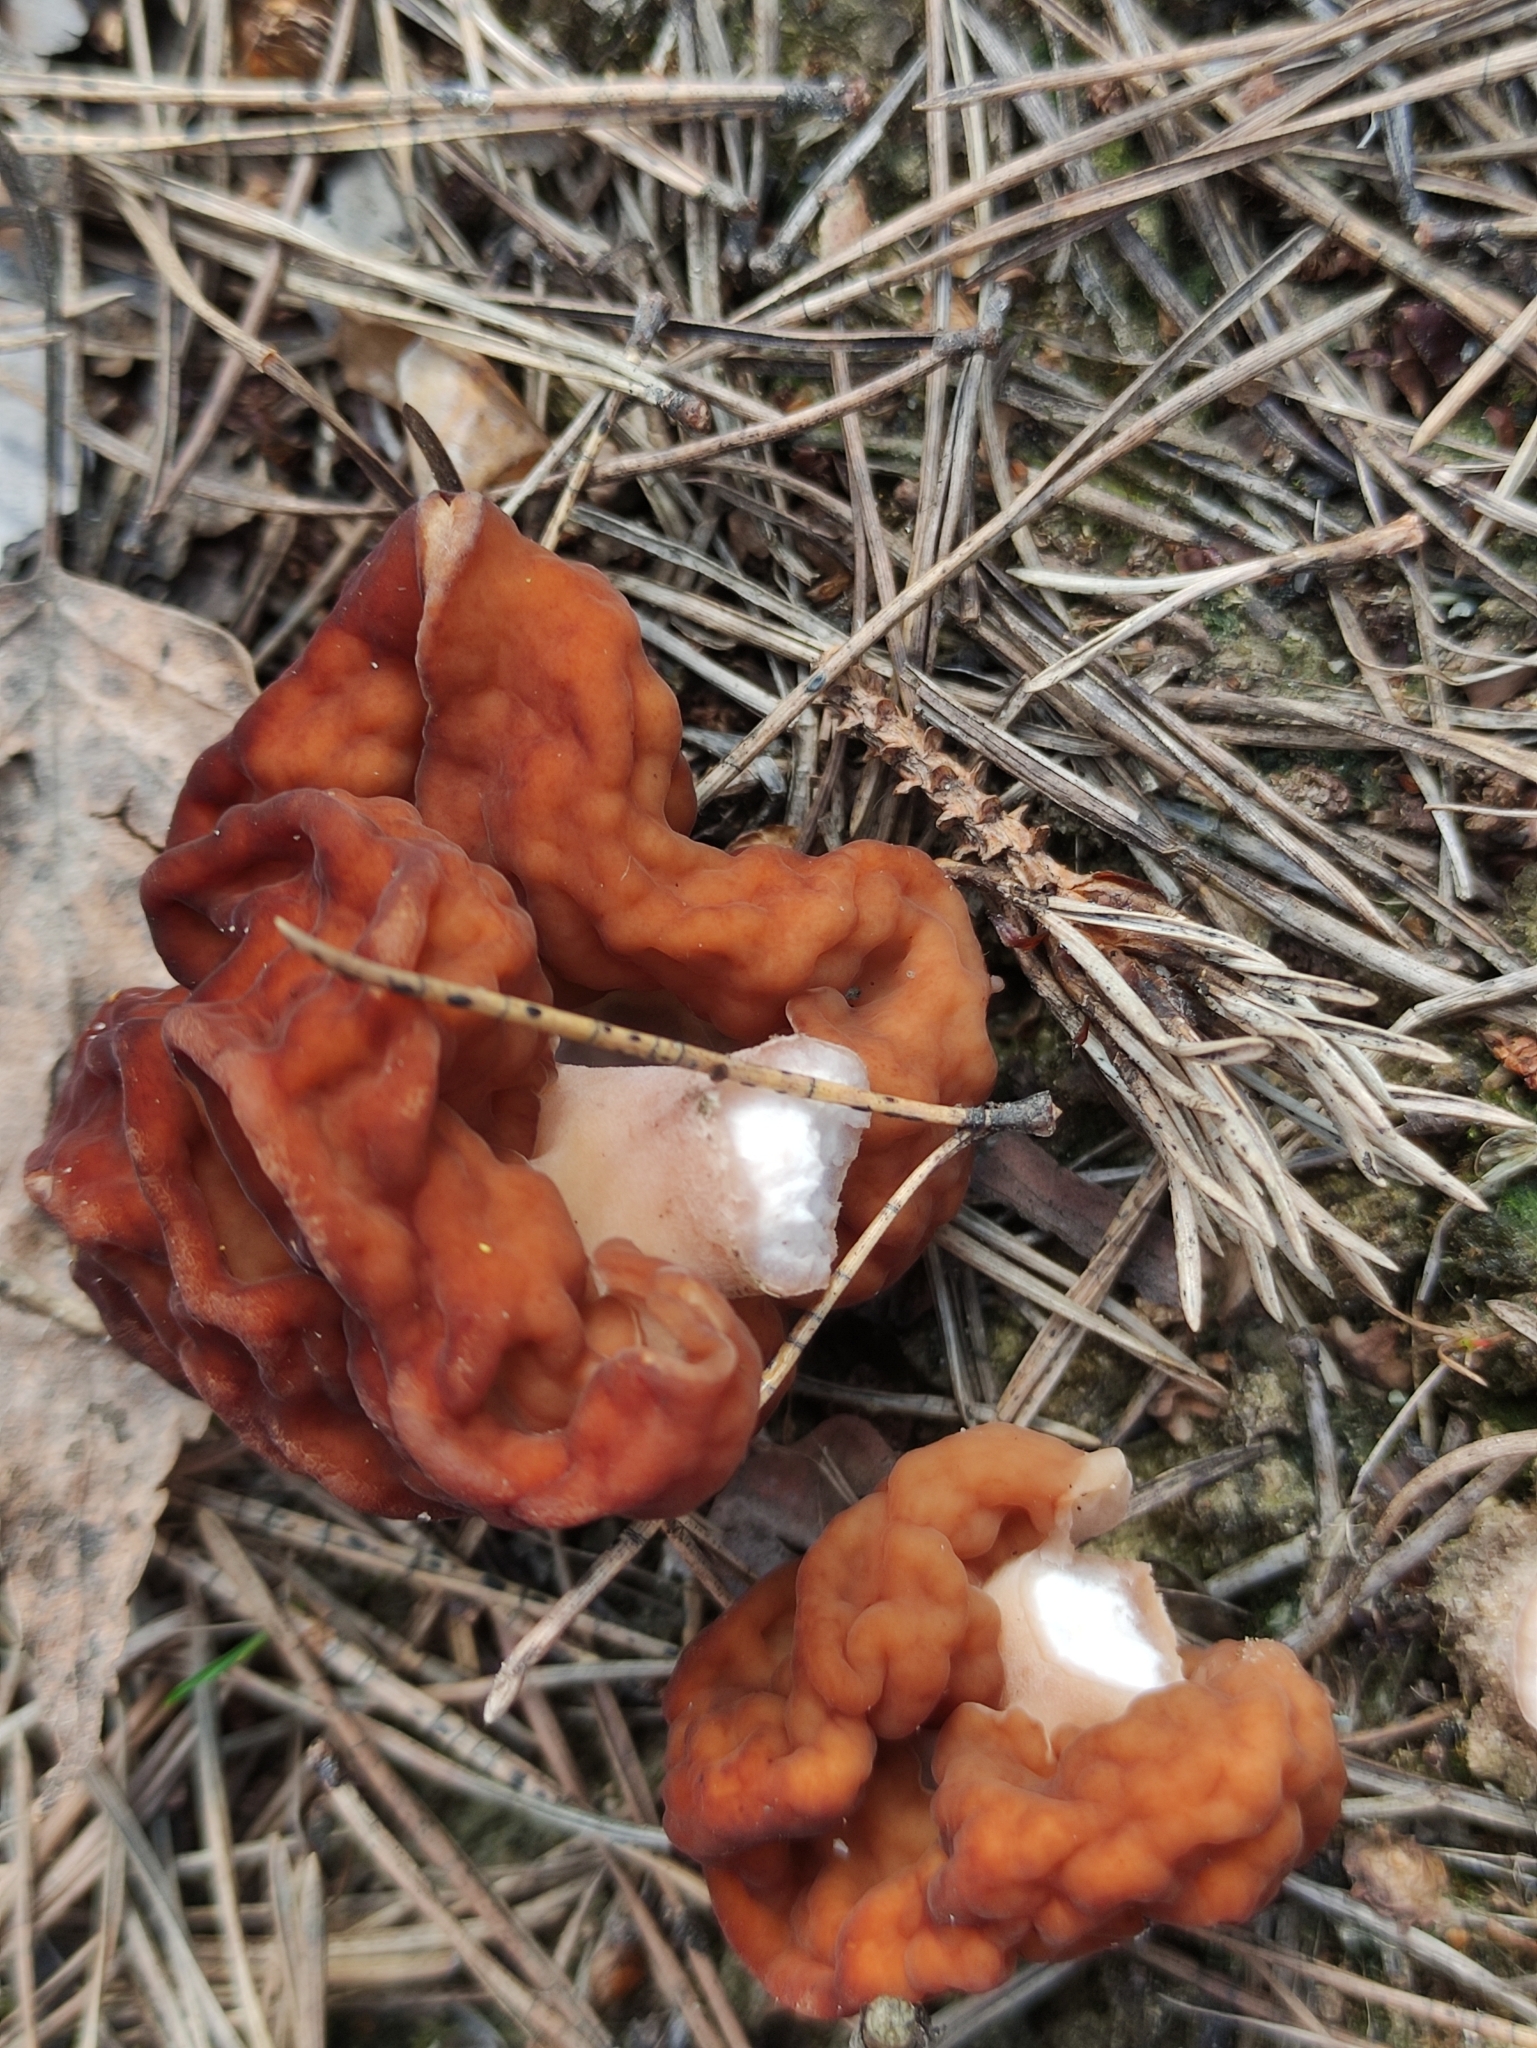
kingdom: Fungi
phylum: Ascomycota
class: Pezizomycetes
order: Pezizales
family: Discinaceae
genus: Gyromitra
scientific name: Gyromitra esculenta
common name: False morel
